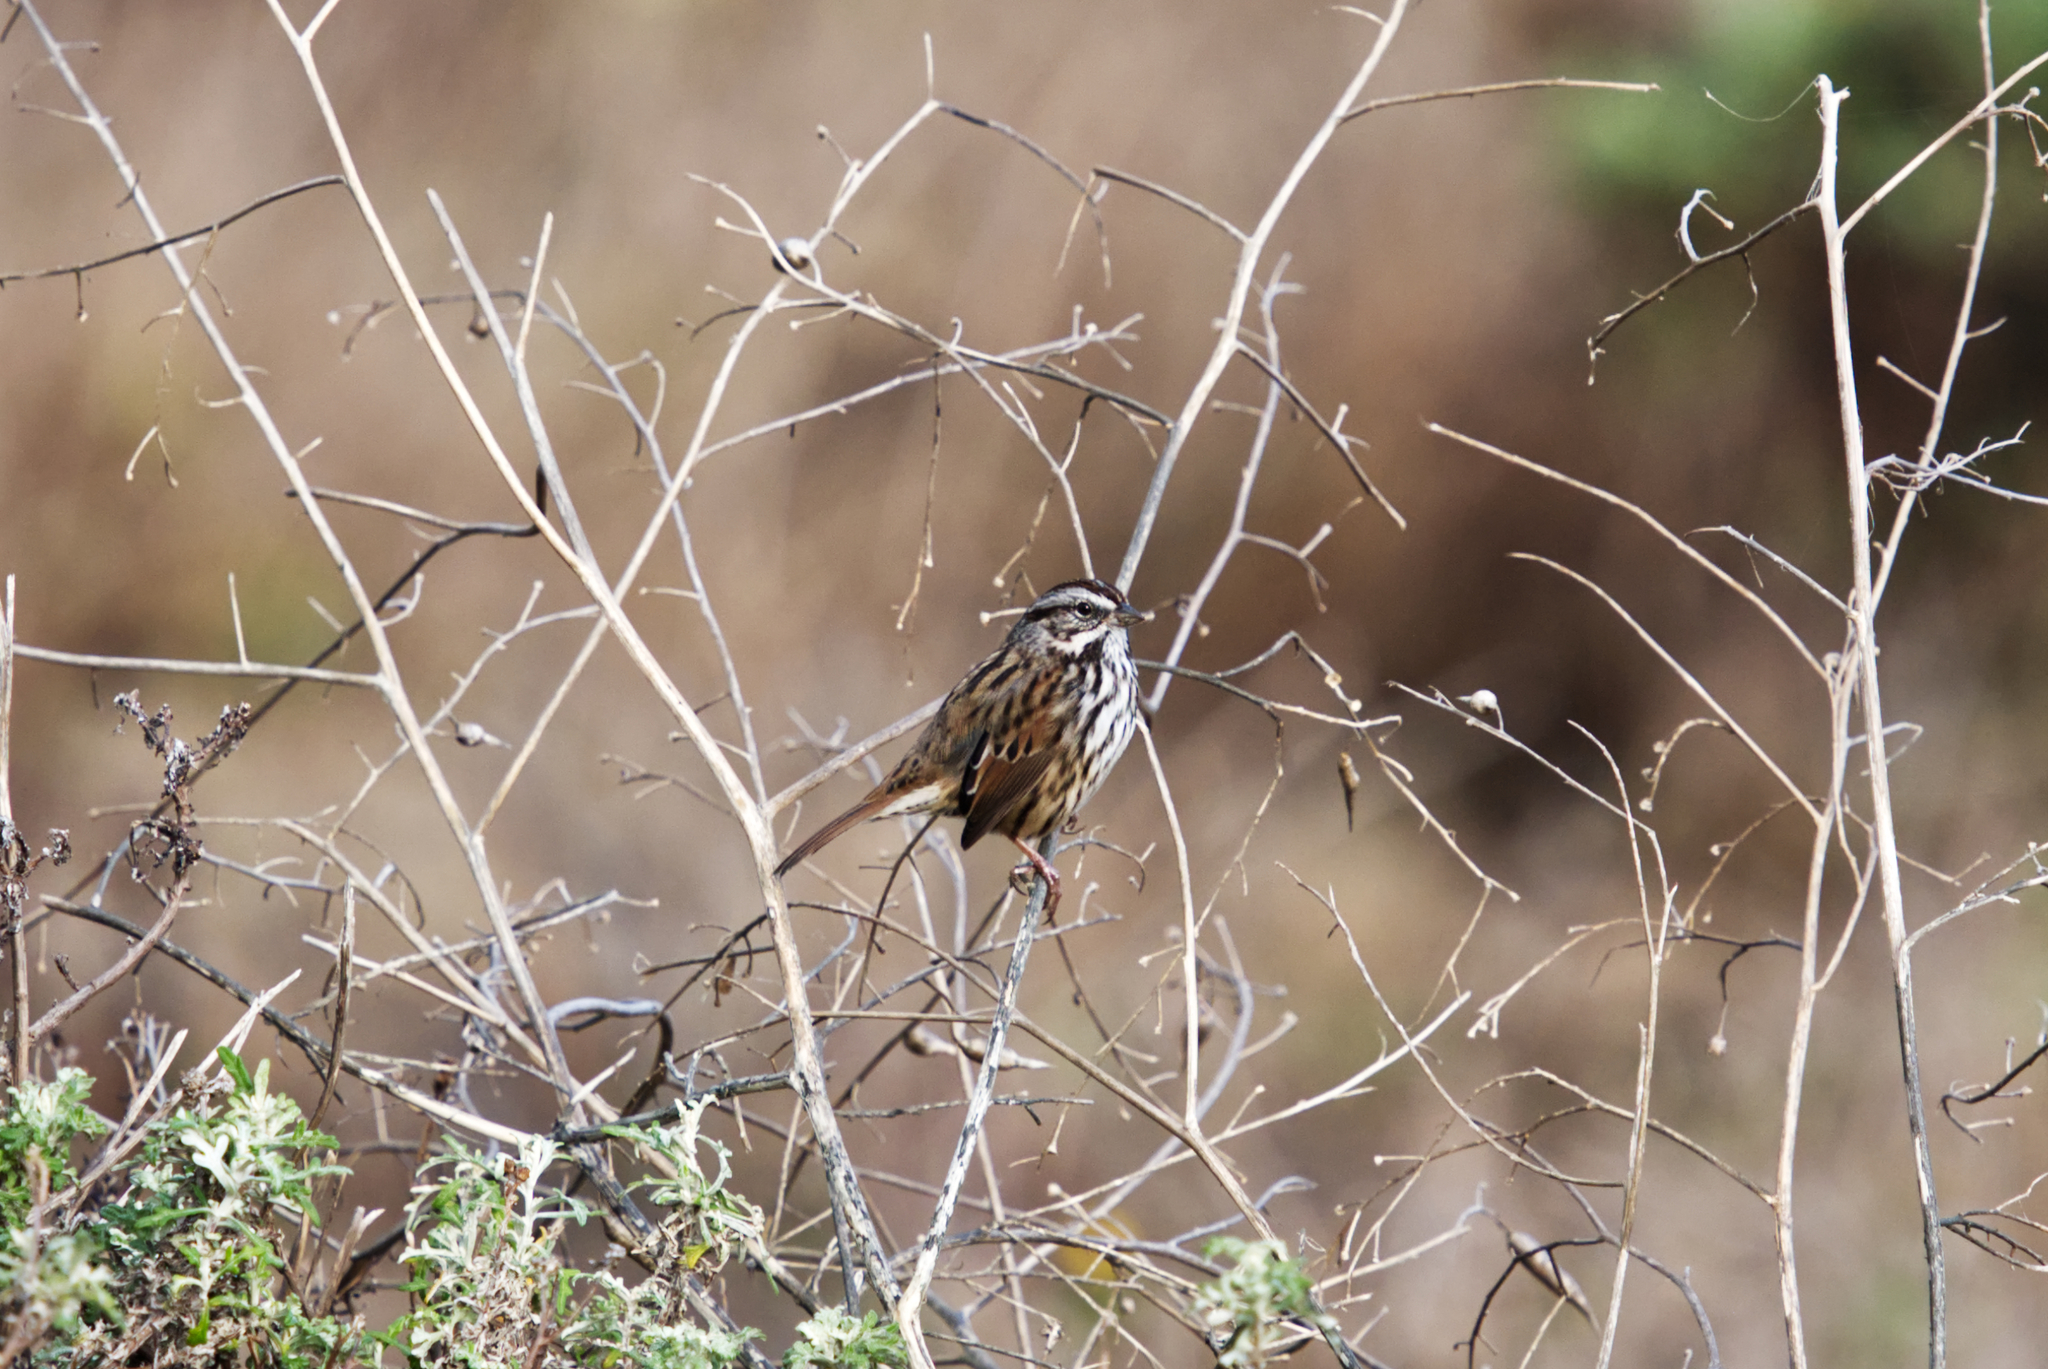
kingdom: Animalia
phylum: Chordata
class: Aves
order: Passeriformes
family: Passerellidae
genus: Melospiza
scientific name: Melospiza melodia
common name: Song sparrow
